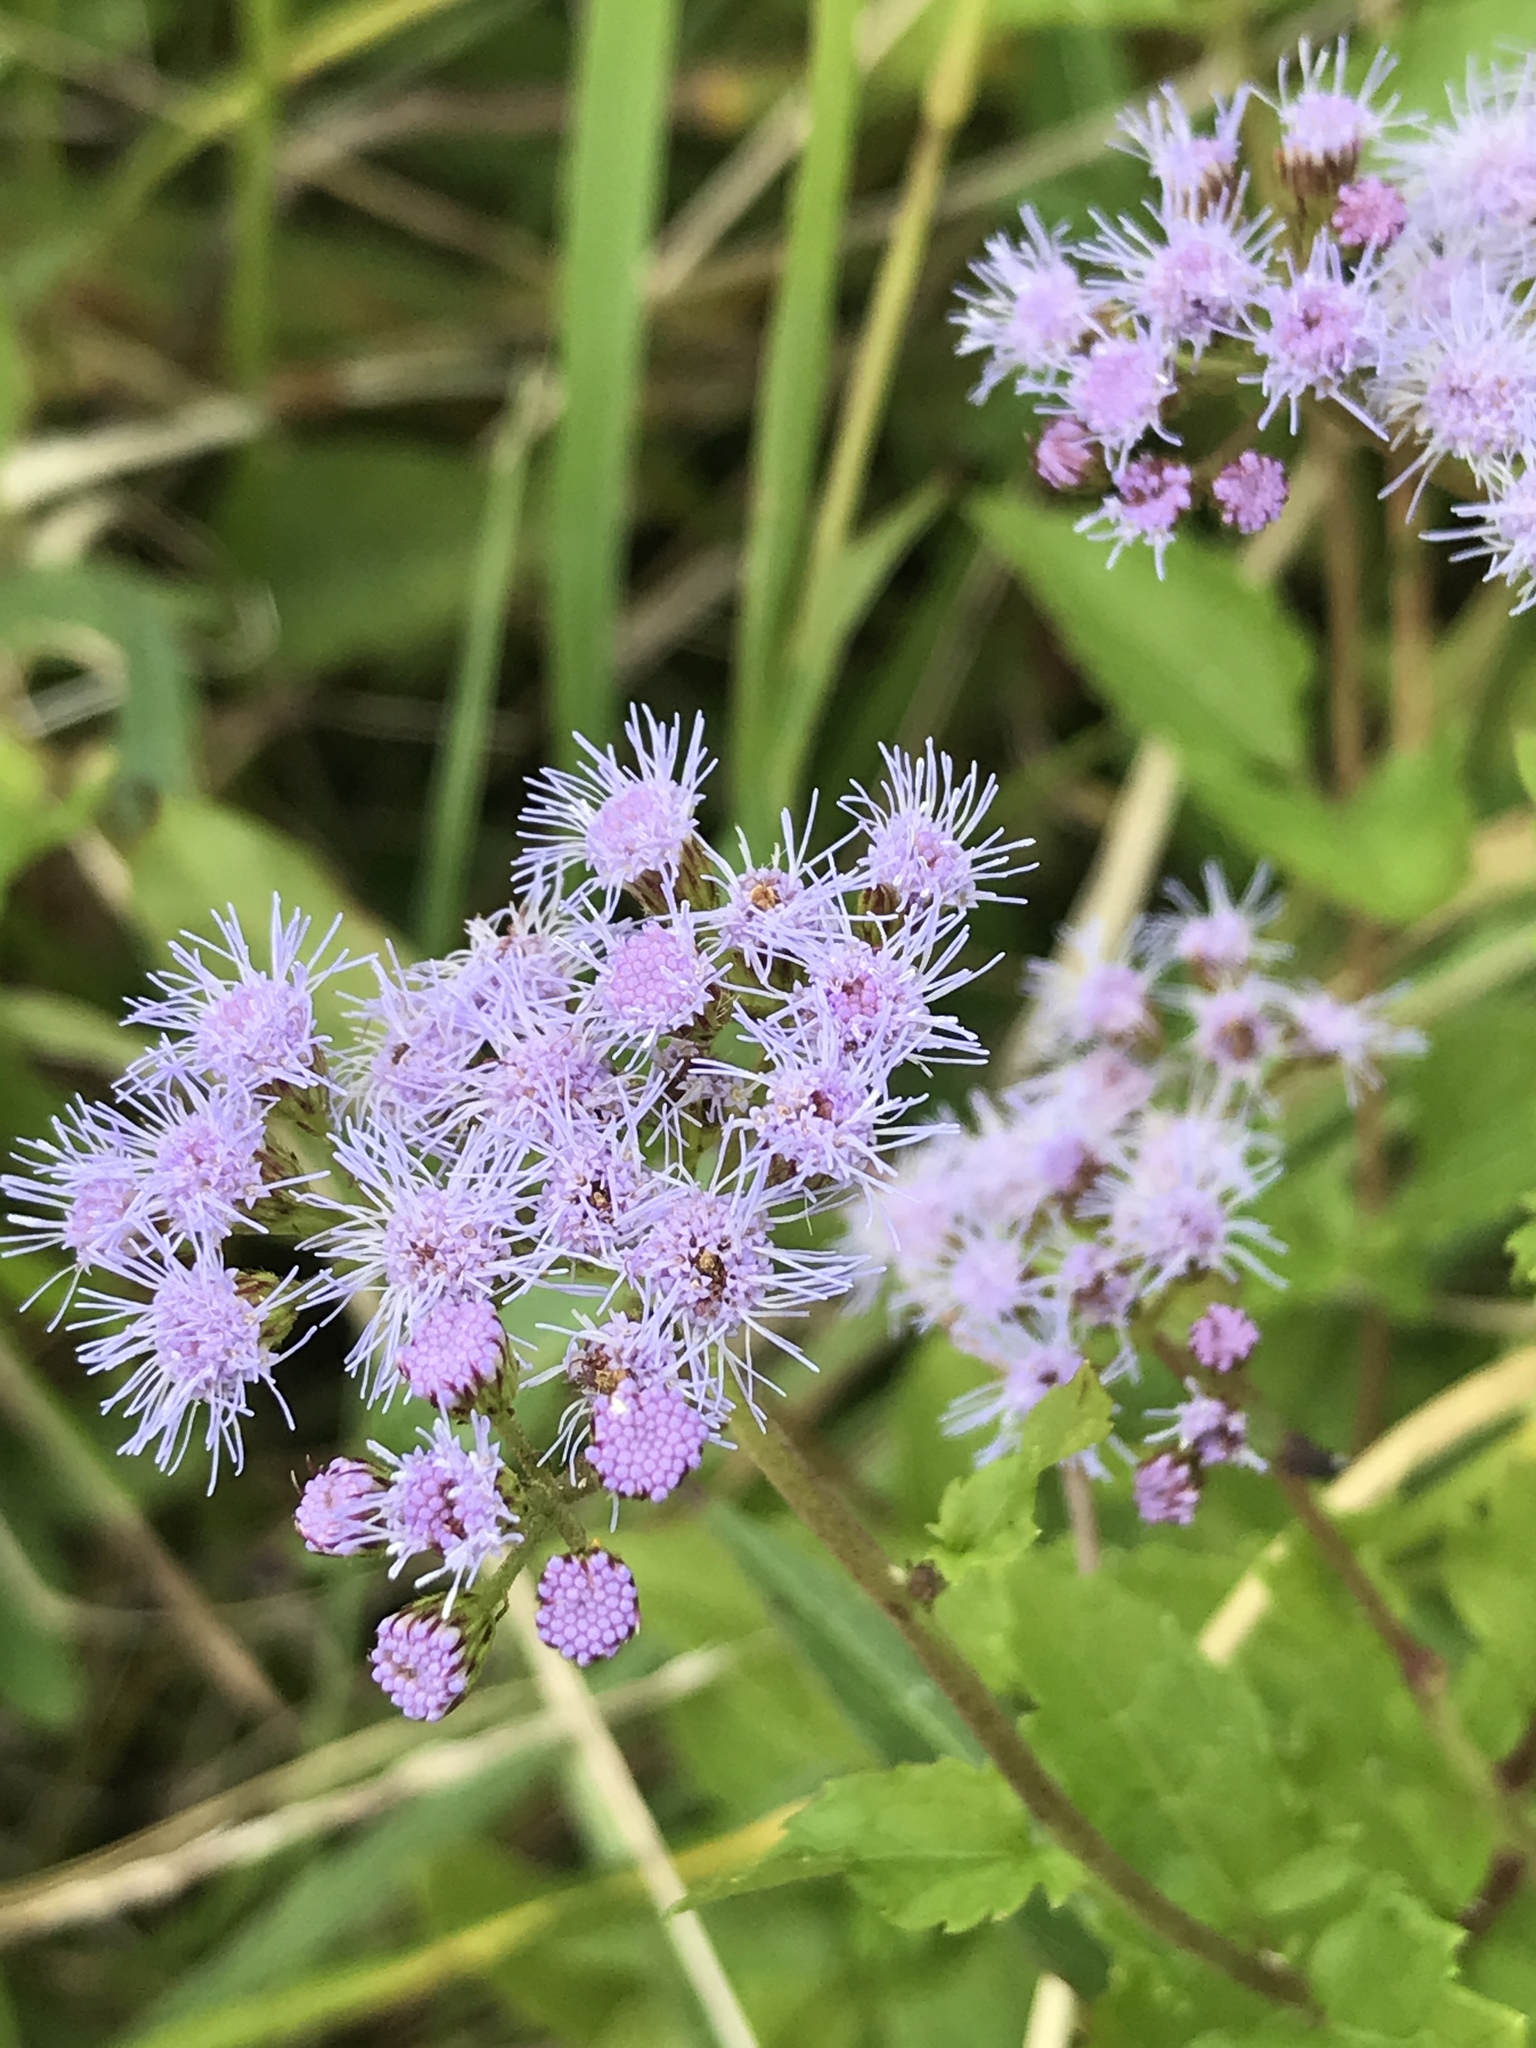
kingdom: Plantae
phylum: Tracheophyta
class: Magnoliopsida
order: Asterales
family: Asteraceae
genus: Conoclinium
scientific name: Conoclinium coelestinum
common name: Blue mistflower
